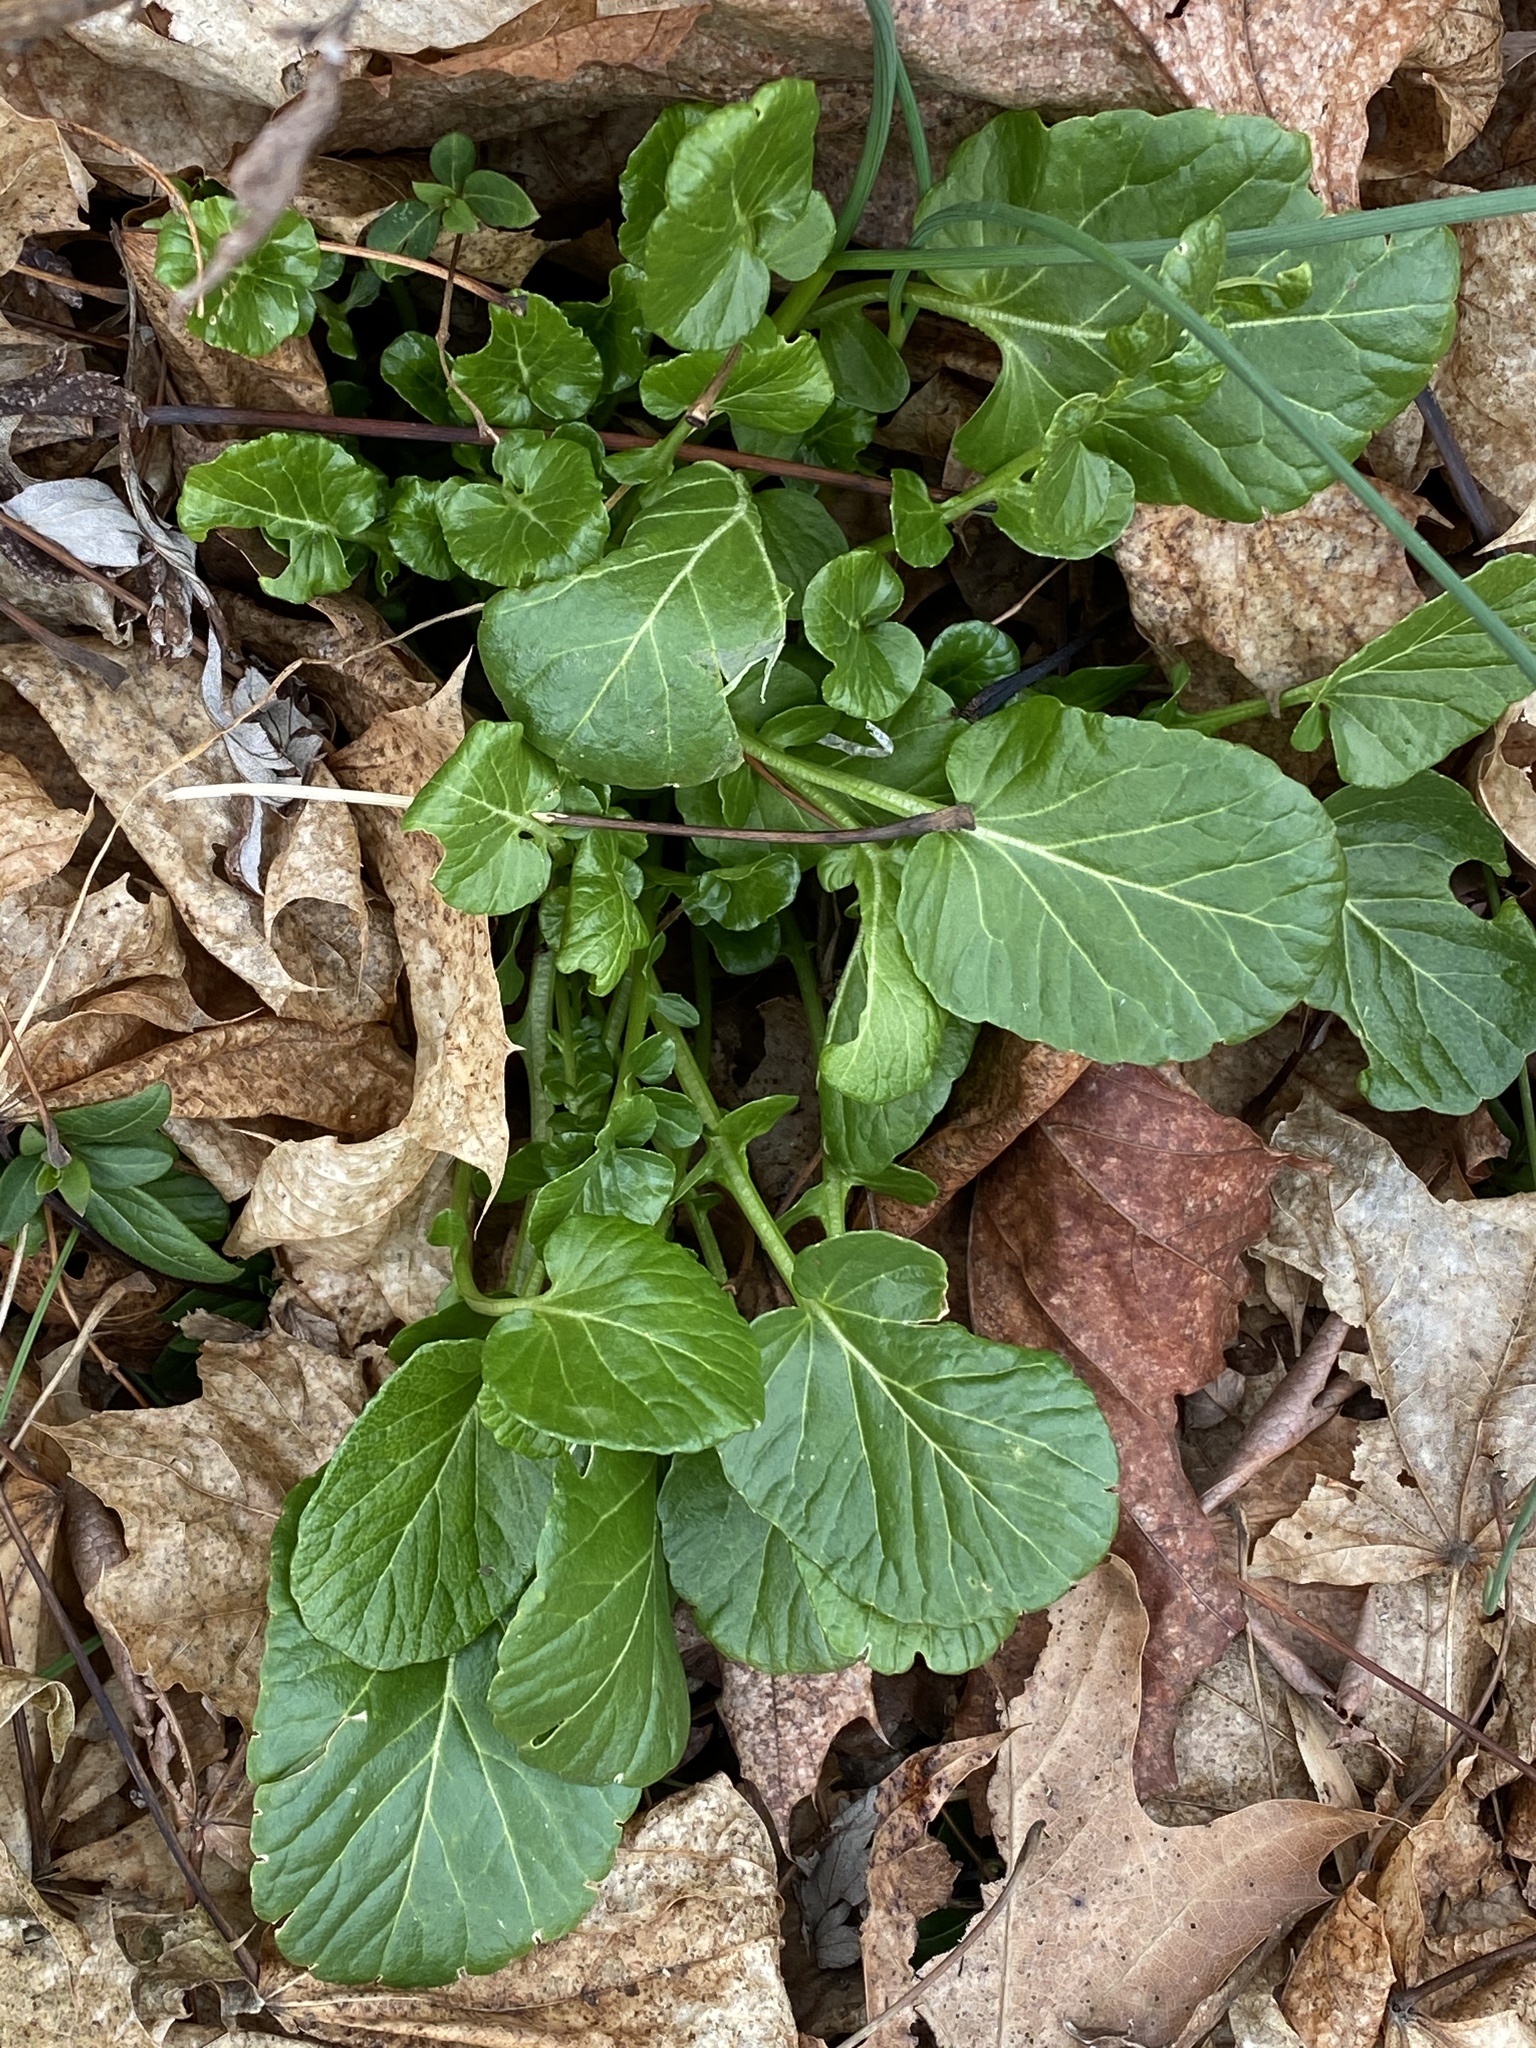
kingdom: Plantae
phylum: Tracheophyta
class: Magnoliopsida
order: Brassicales
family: Brassicaceae
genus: Barbarea
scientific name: Barbarea vulgaris
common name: Cressy-greens
